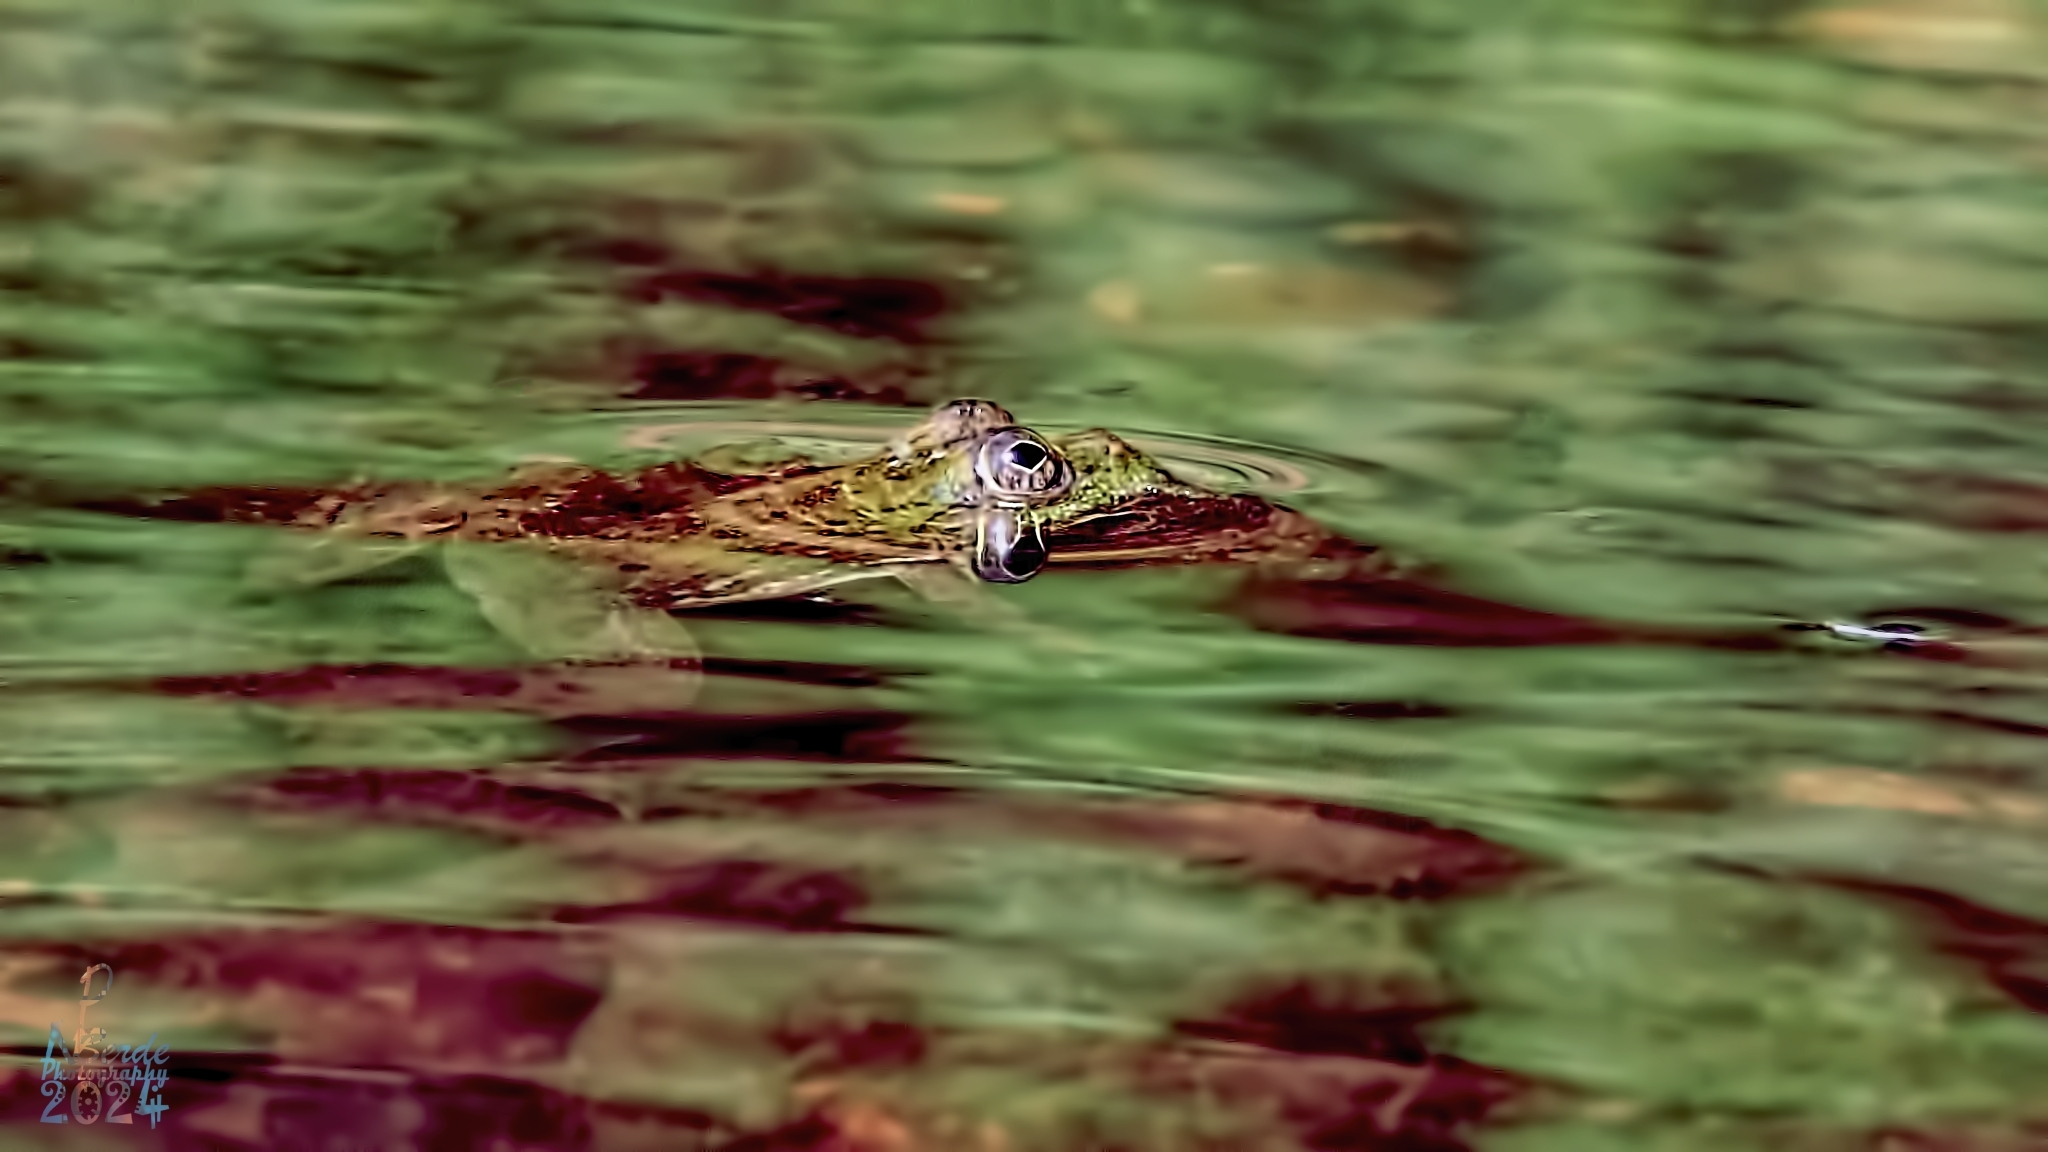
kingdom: Animalia
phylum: Chordata
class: Amphibia
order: Anura
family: Dicroglossidae
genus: Euphlyctis
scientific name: Euphlyctis cyanophlyctis
